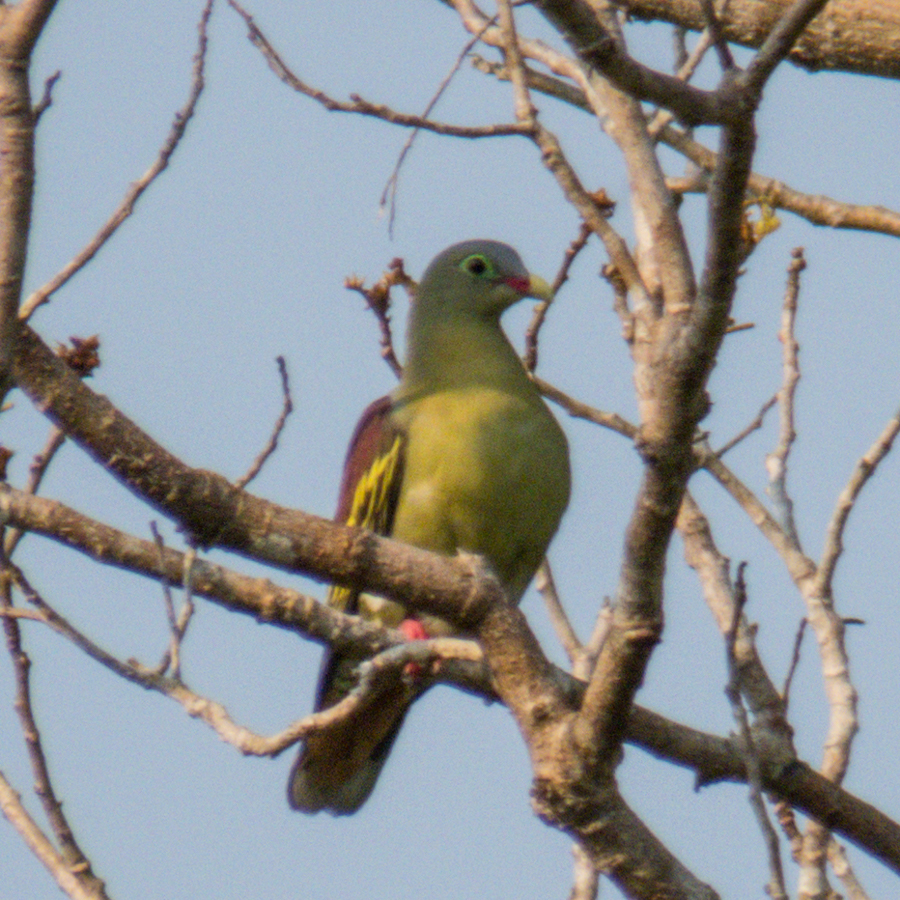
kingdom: Animalia
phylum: Chordata
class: Aves
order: Columbiformes
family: Columbidae
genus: Treron
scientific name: Treron curvirostra
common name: Thick-billed green pigeon
